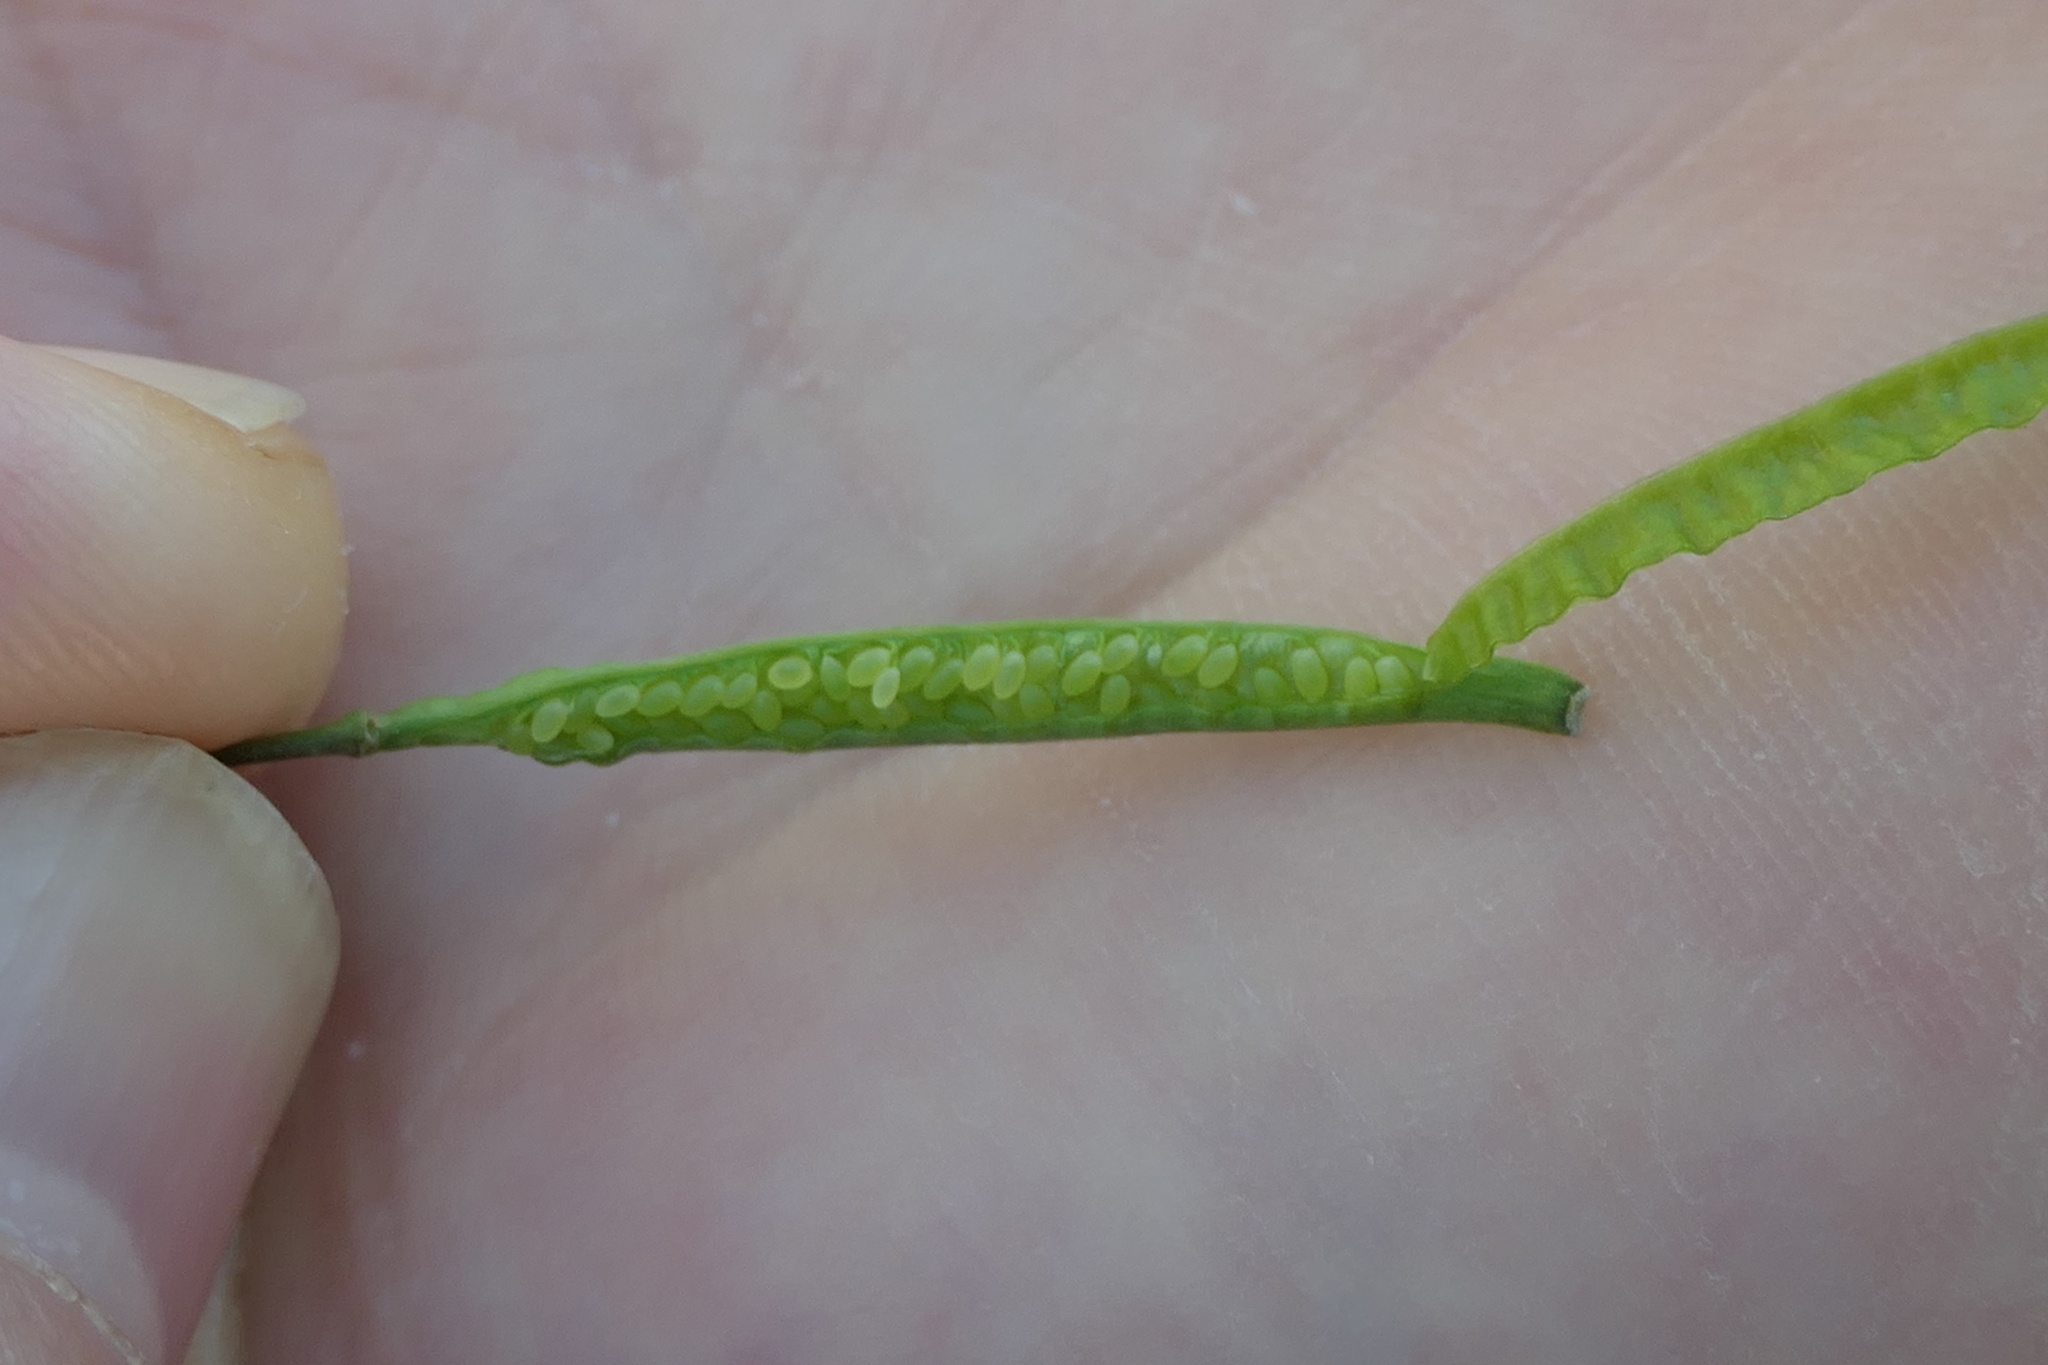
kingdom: Plantae
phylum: Tracheophyta
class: Magnoliopsida
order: Brassicales
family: Brassicaceae
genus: Diplotaxis
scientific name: Diplotaxis virgata
